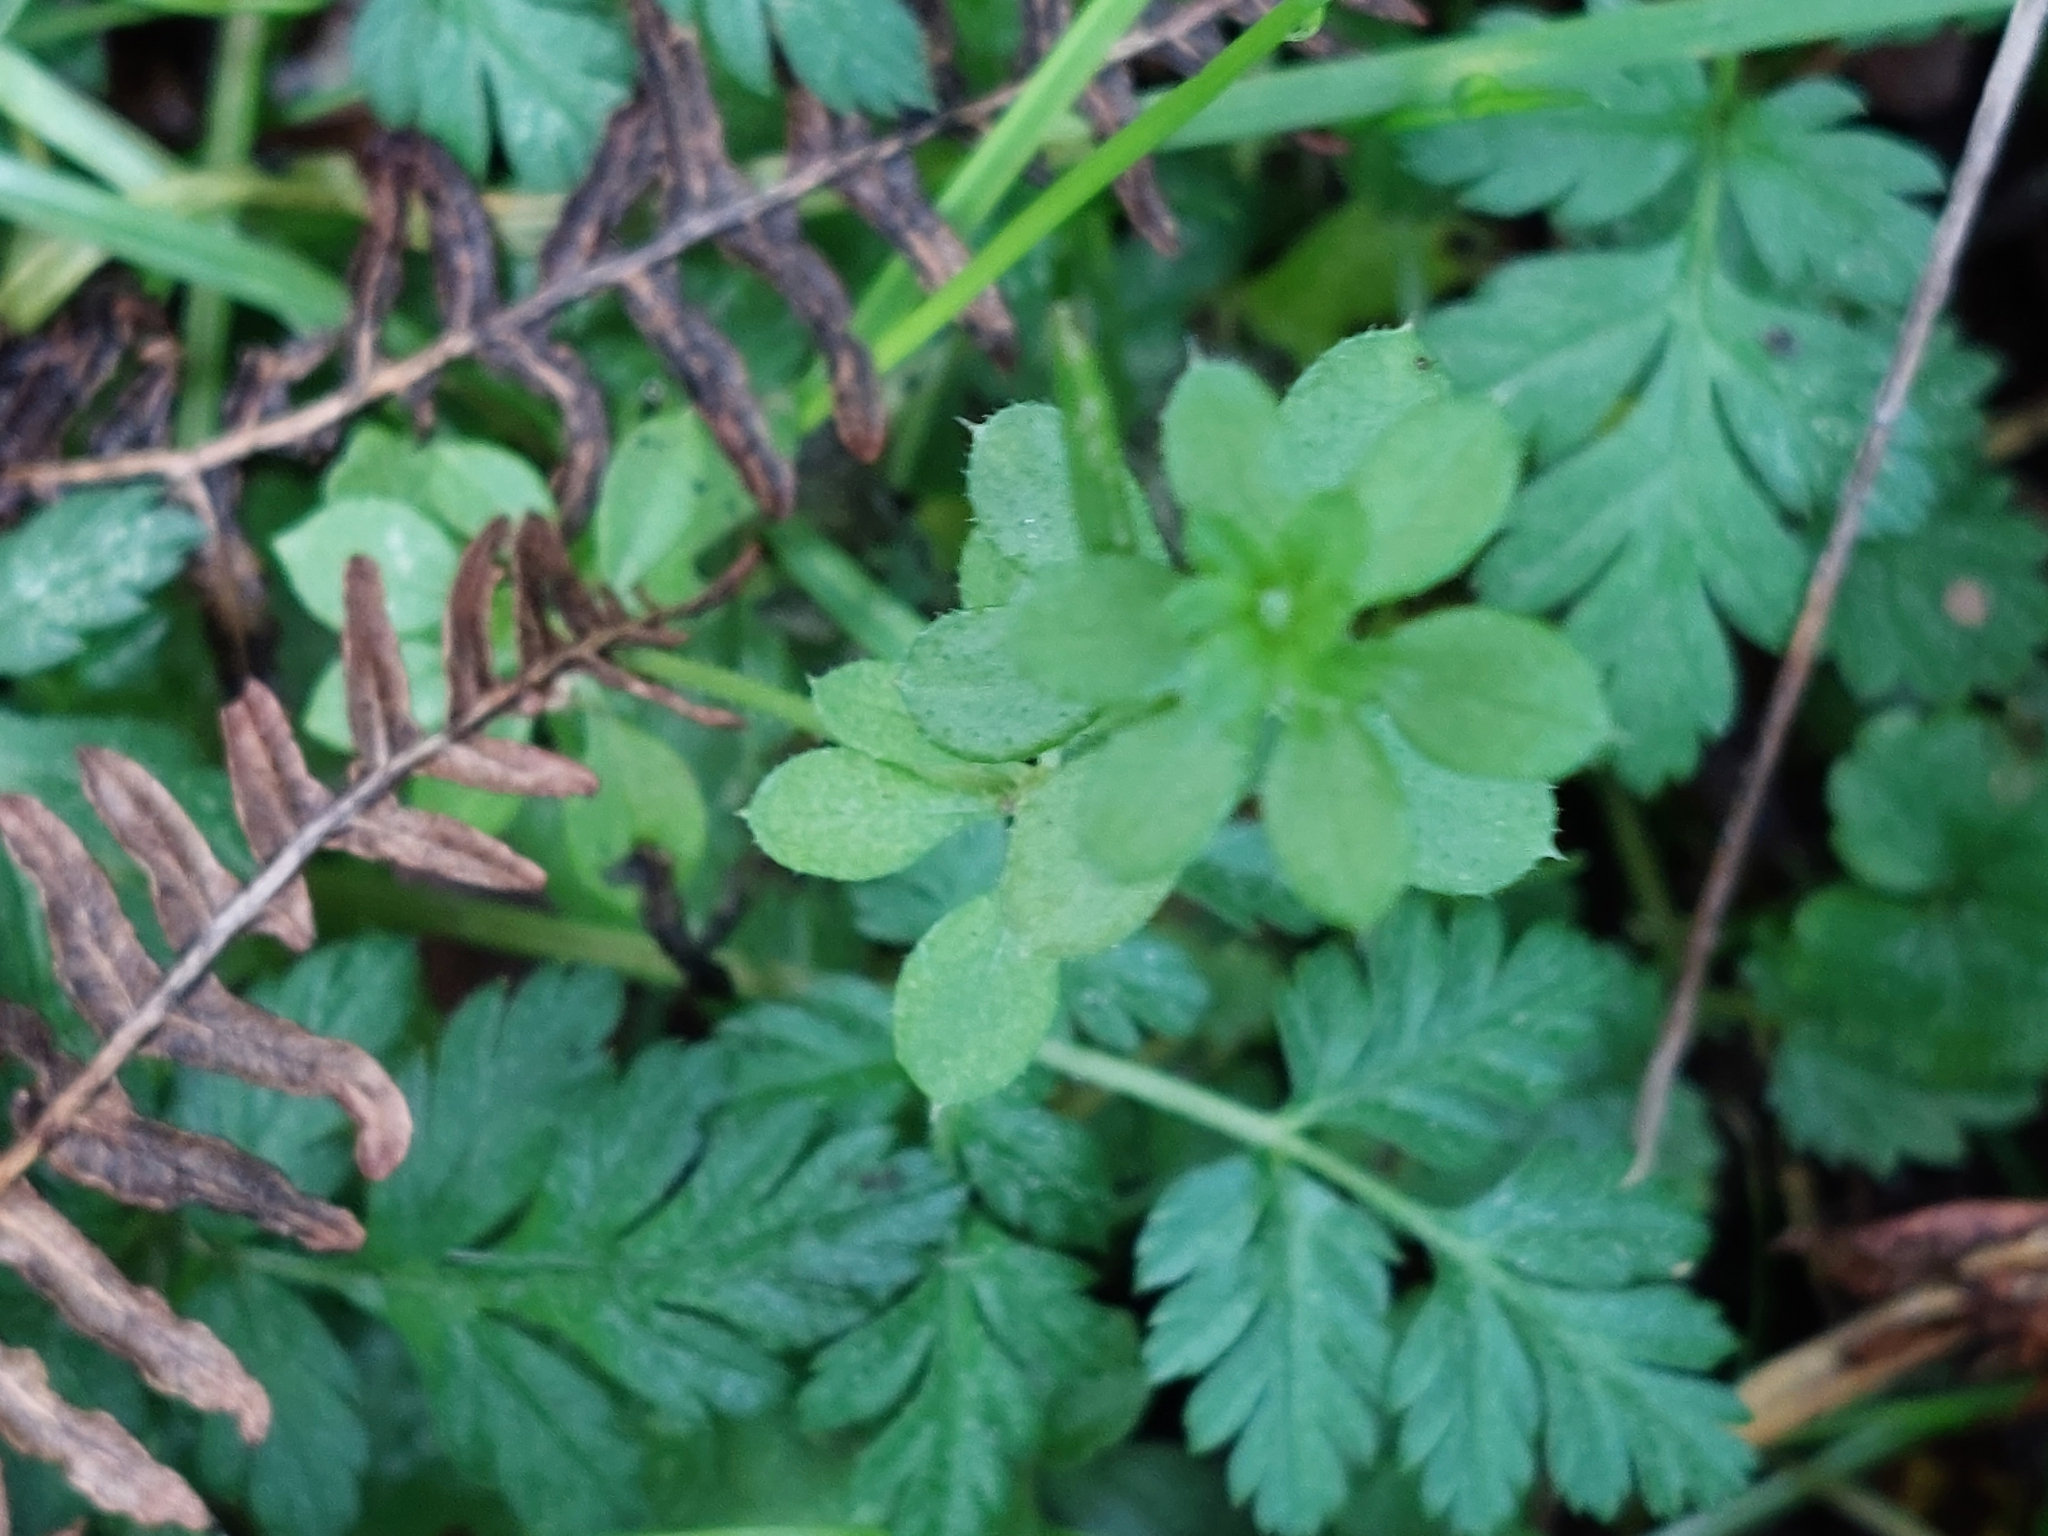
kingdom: Plantae
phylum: Tracheophyta
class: Magnoliopsida
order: Gentianales
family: Rubiaceae
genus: Galium
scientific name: Galium aparine
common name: Cleavers
